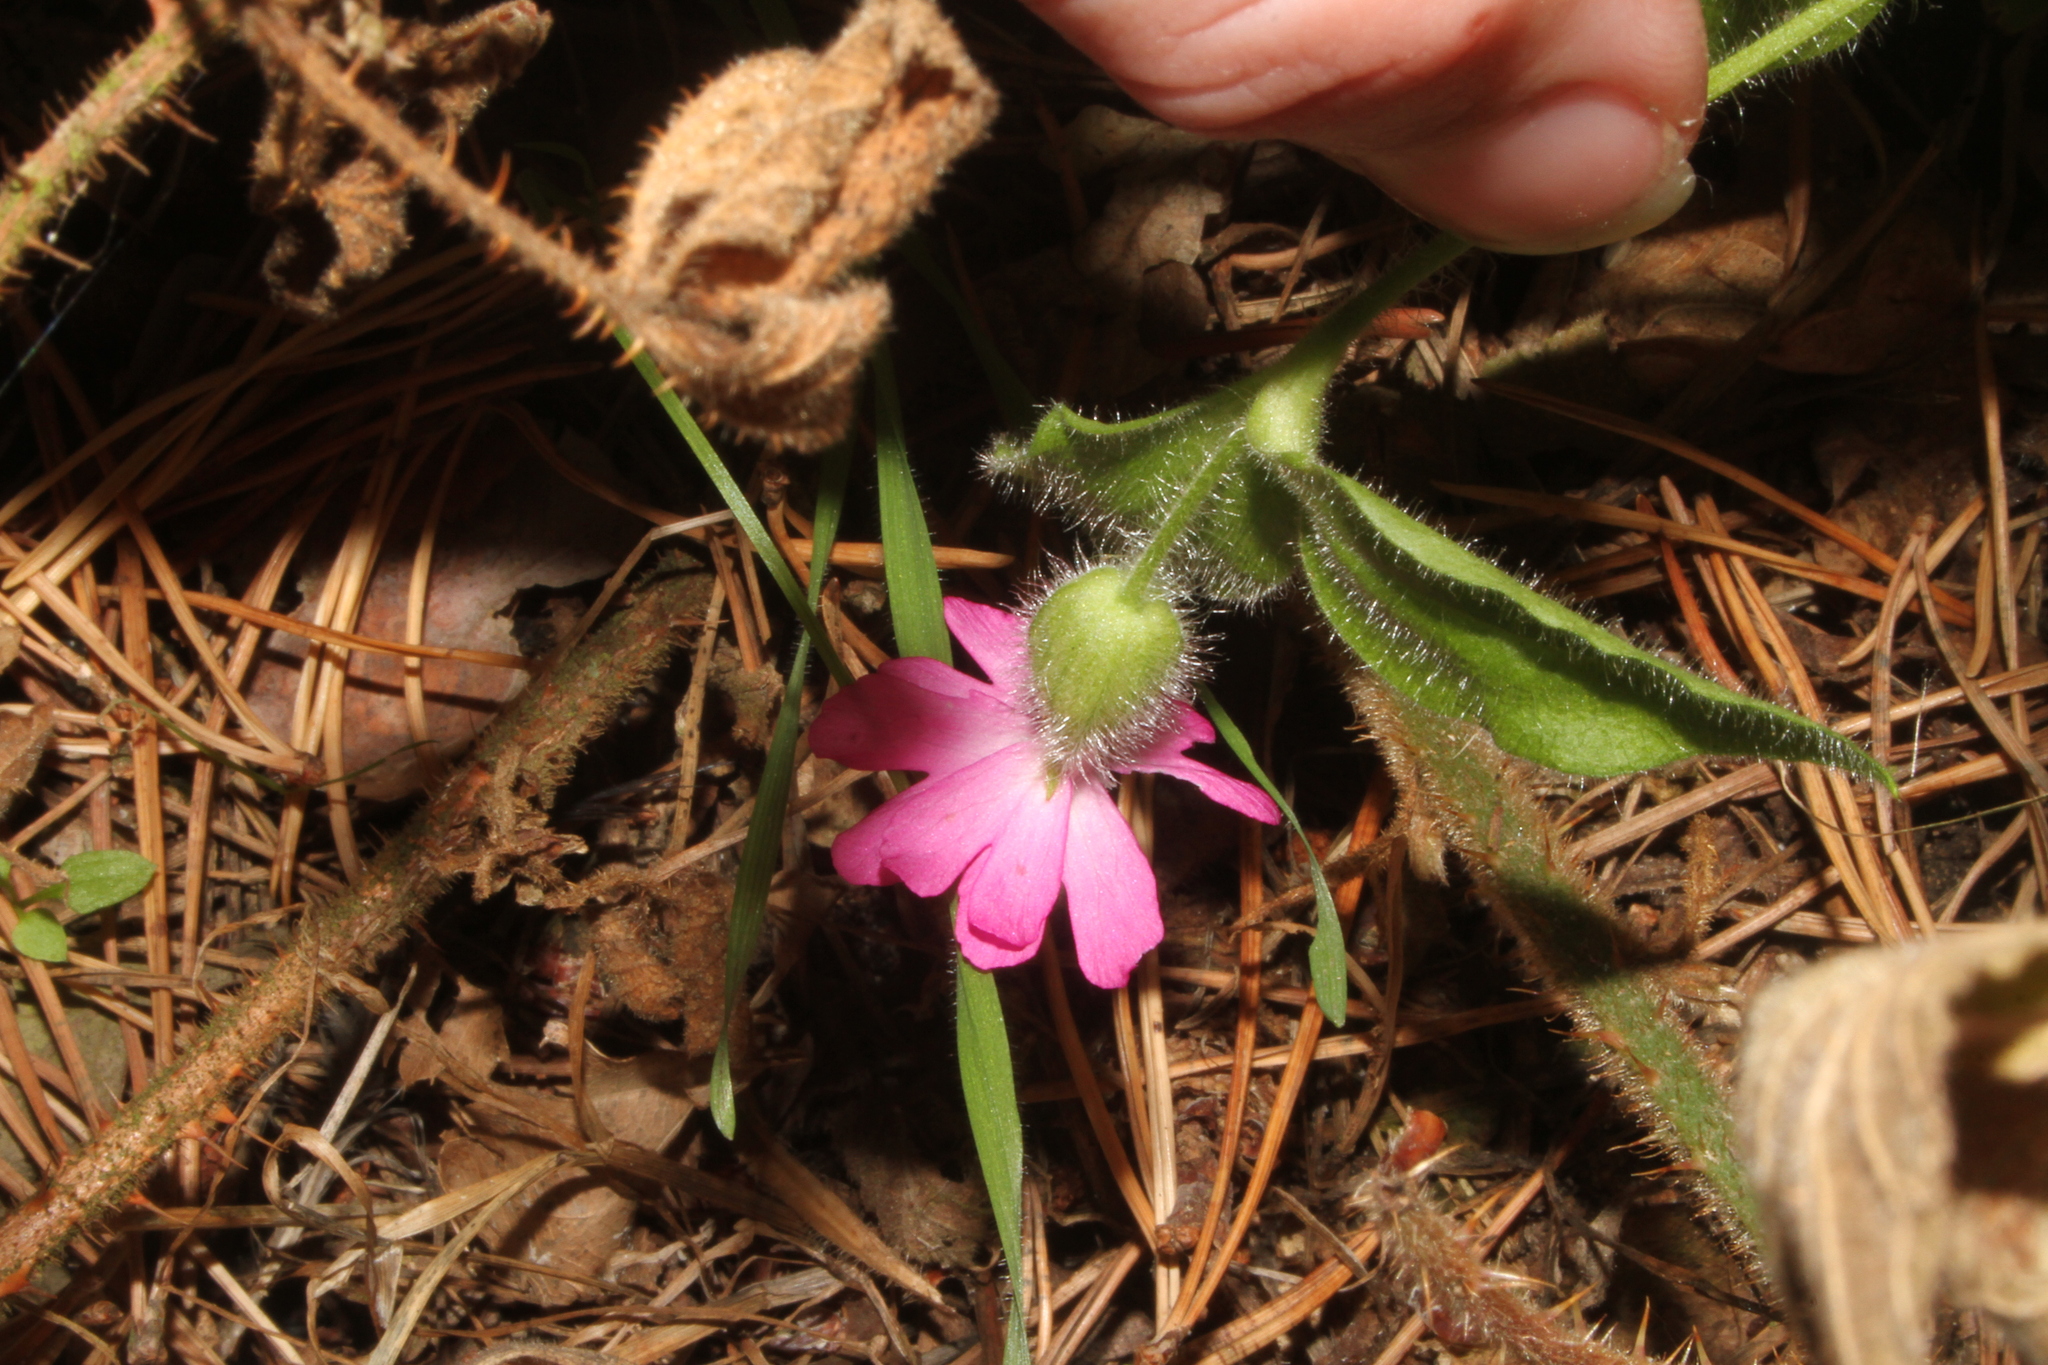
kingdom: Plantae
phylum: Tracheophyta
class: Magnoliopsida
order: Caryophyllales
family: Caryophyllaceae
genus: Silene
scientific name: Silene dioica
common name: Red campion
